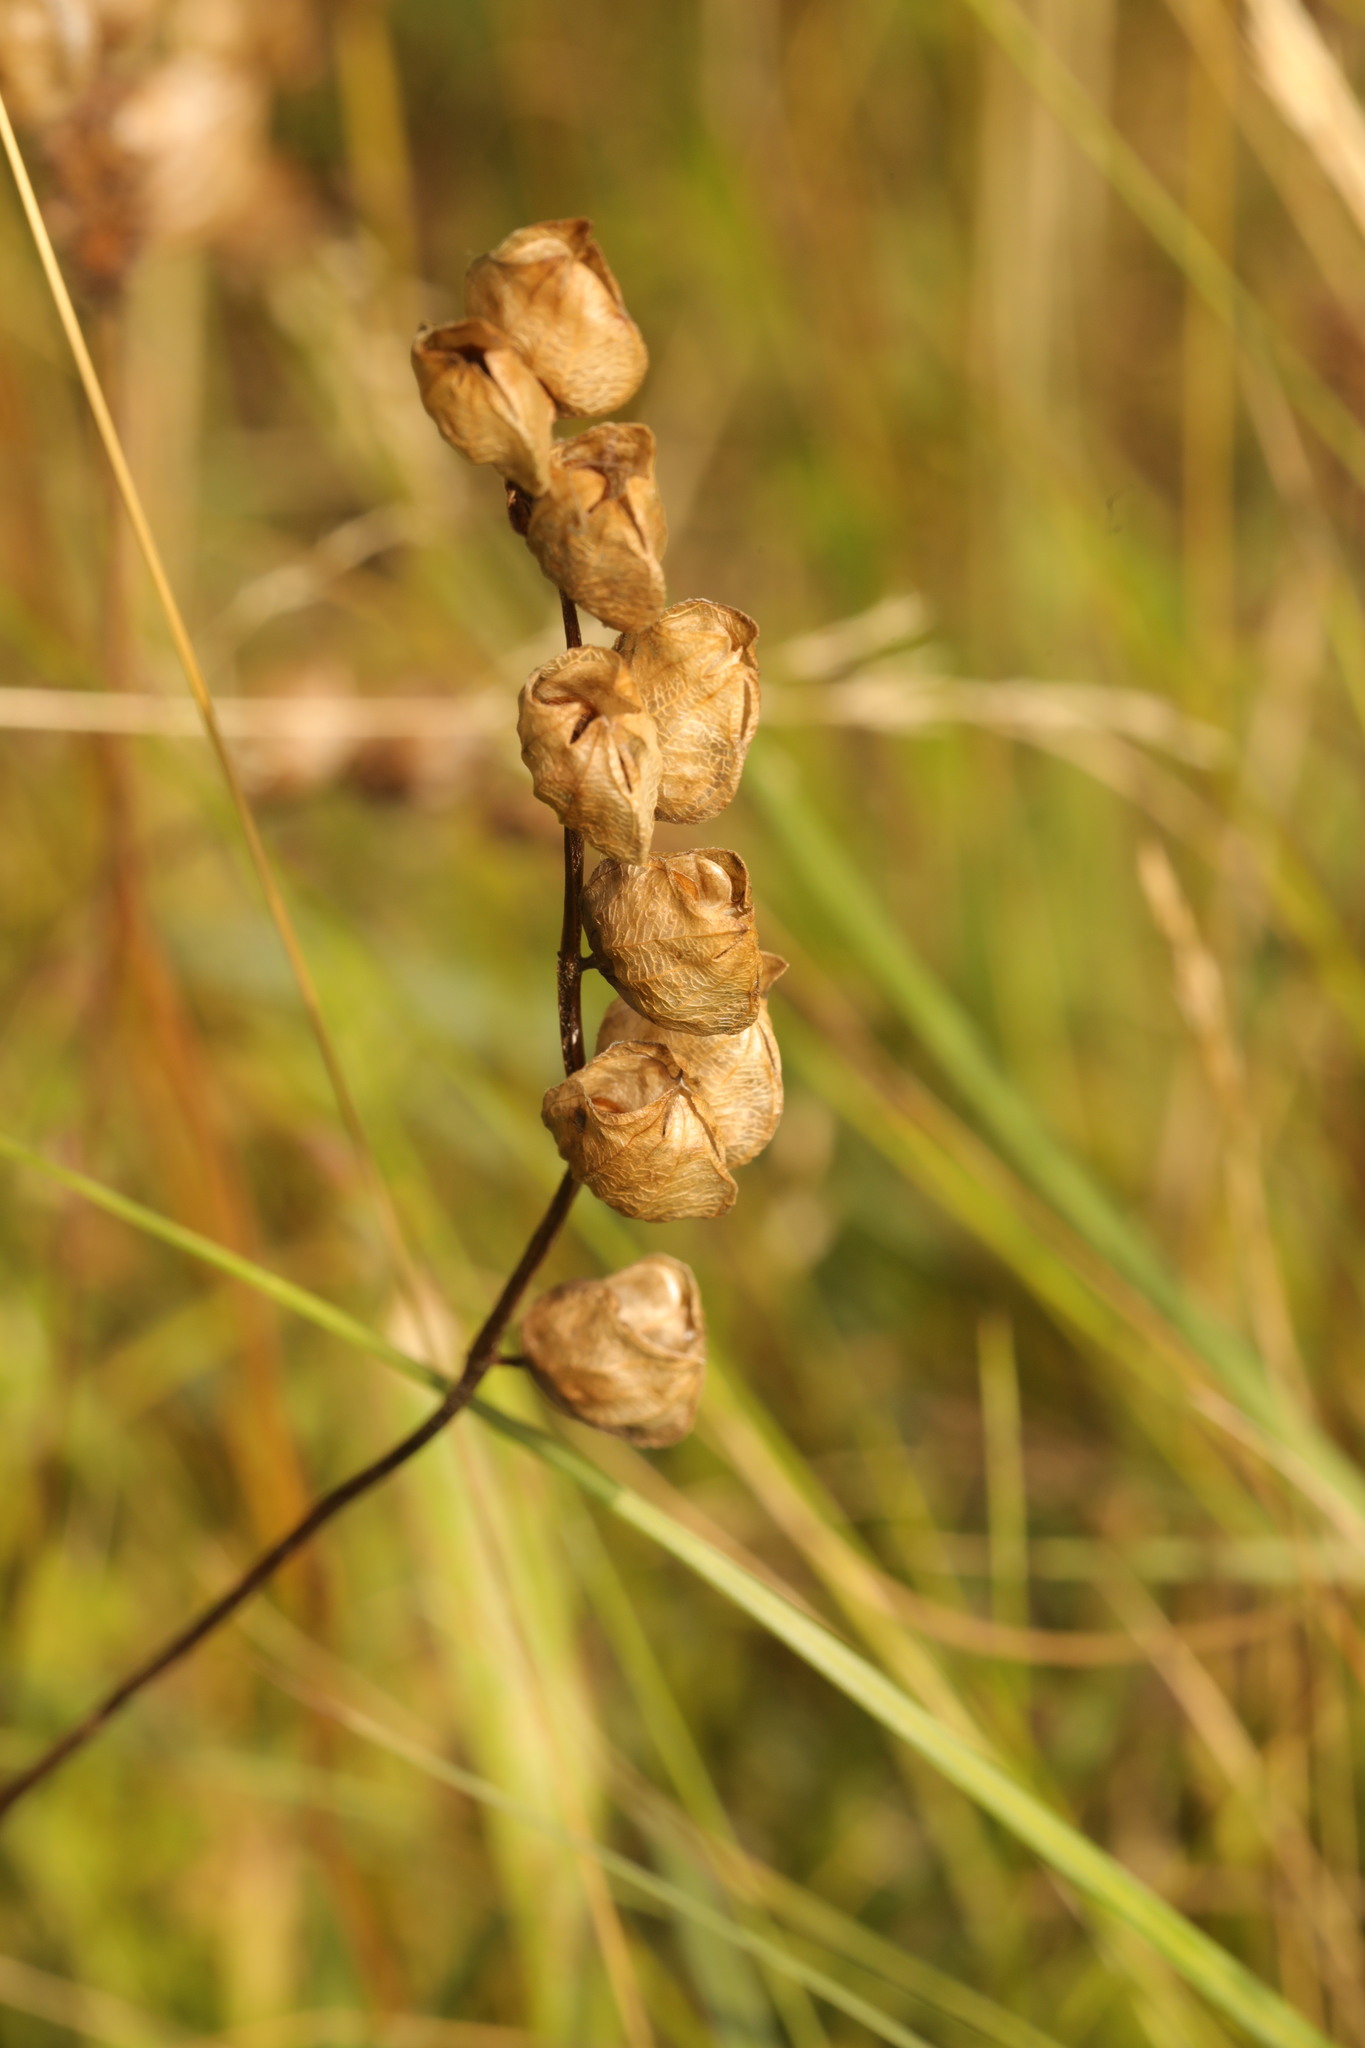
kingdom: Plantae
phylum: Tracheophyta
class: Magnoliopsida
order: Lamiales
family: Orobanchaceae
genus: Rhinanthus
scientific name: Rhinanthus minor
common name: Yellow-rattle
